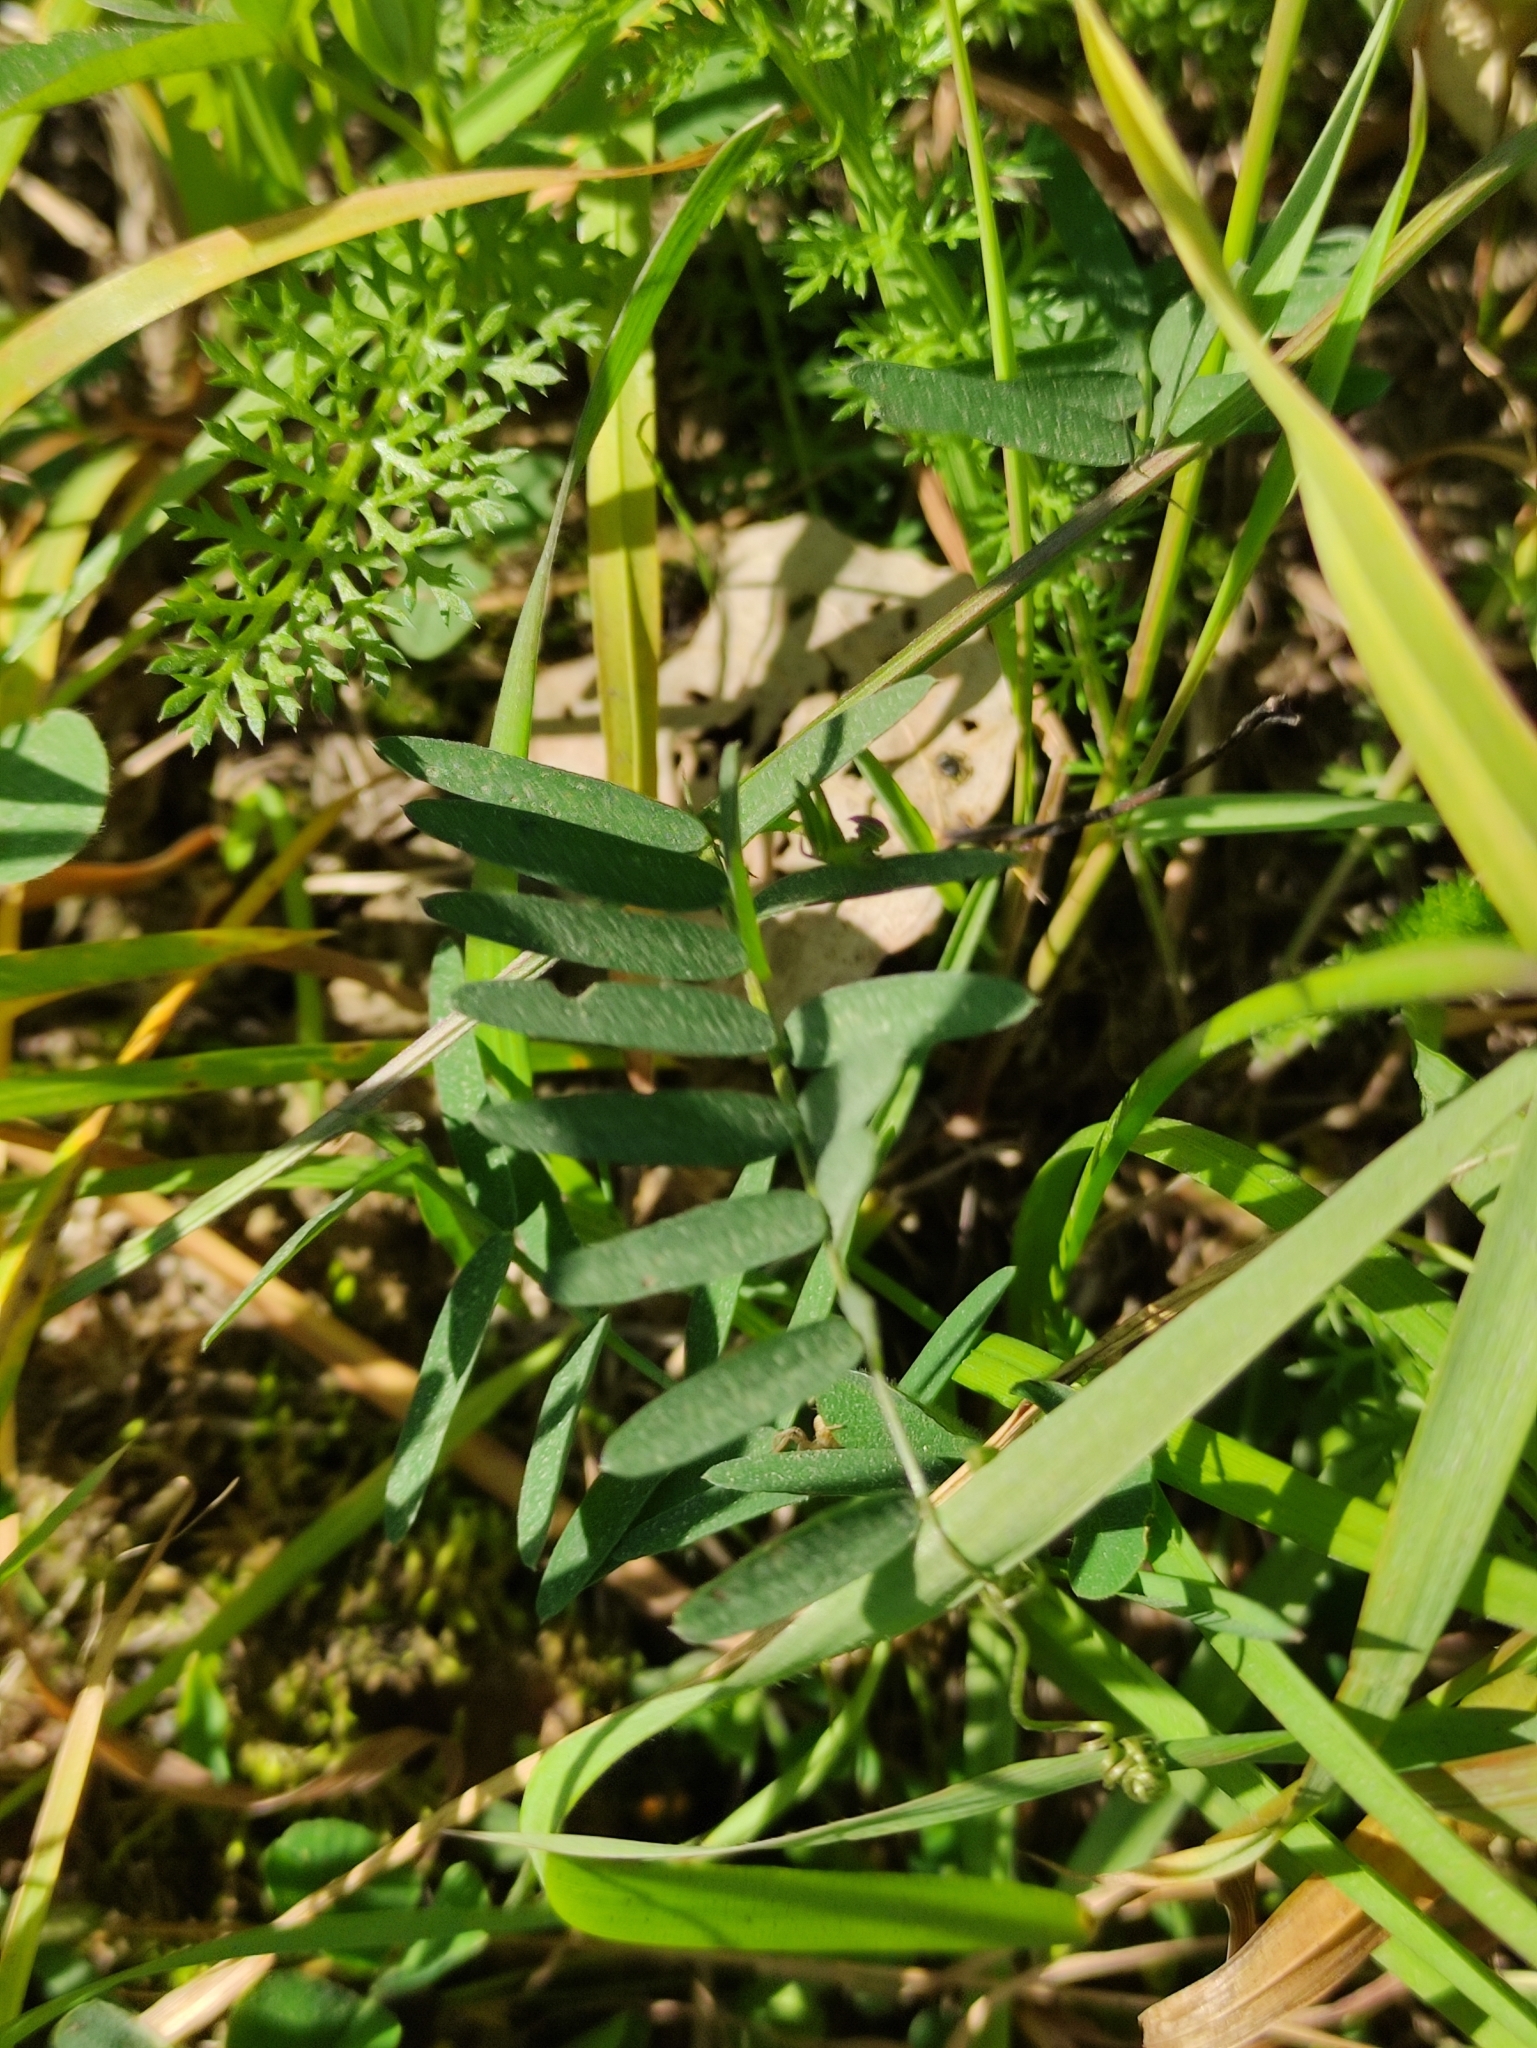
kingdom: Plantae
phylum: Tracheophyta
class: Magnoliopsida
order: Fabales
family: Fabaceae
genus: Vicia
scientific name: Vicia cracca
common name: Bird vetch
